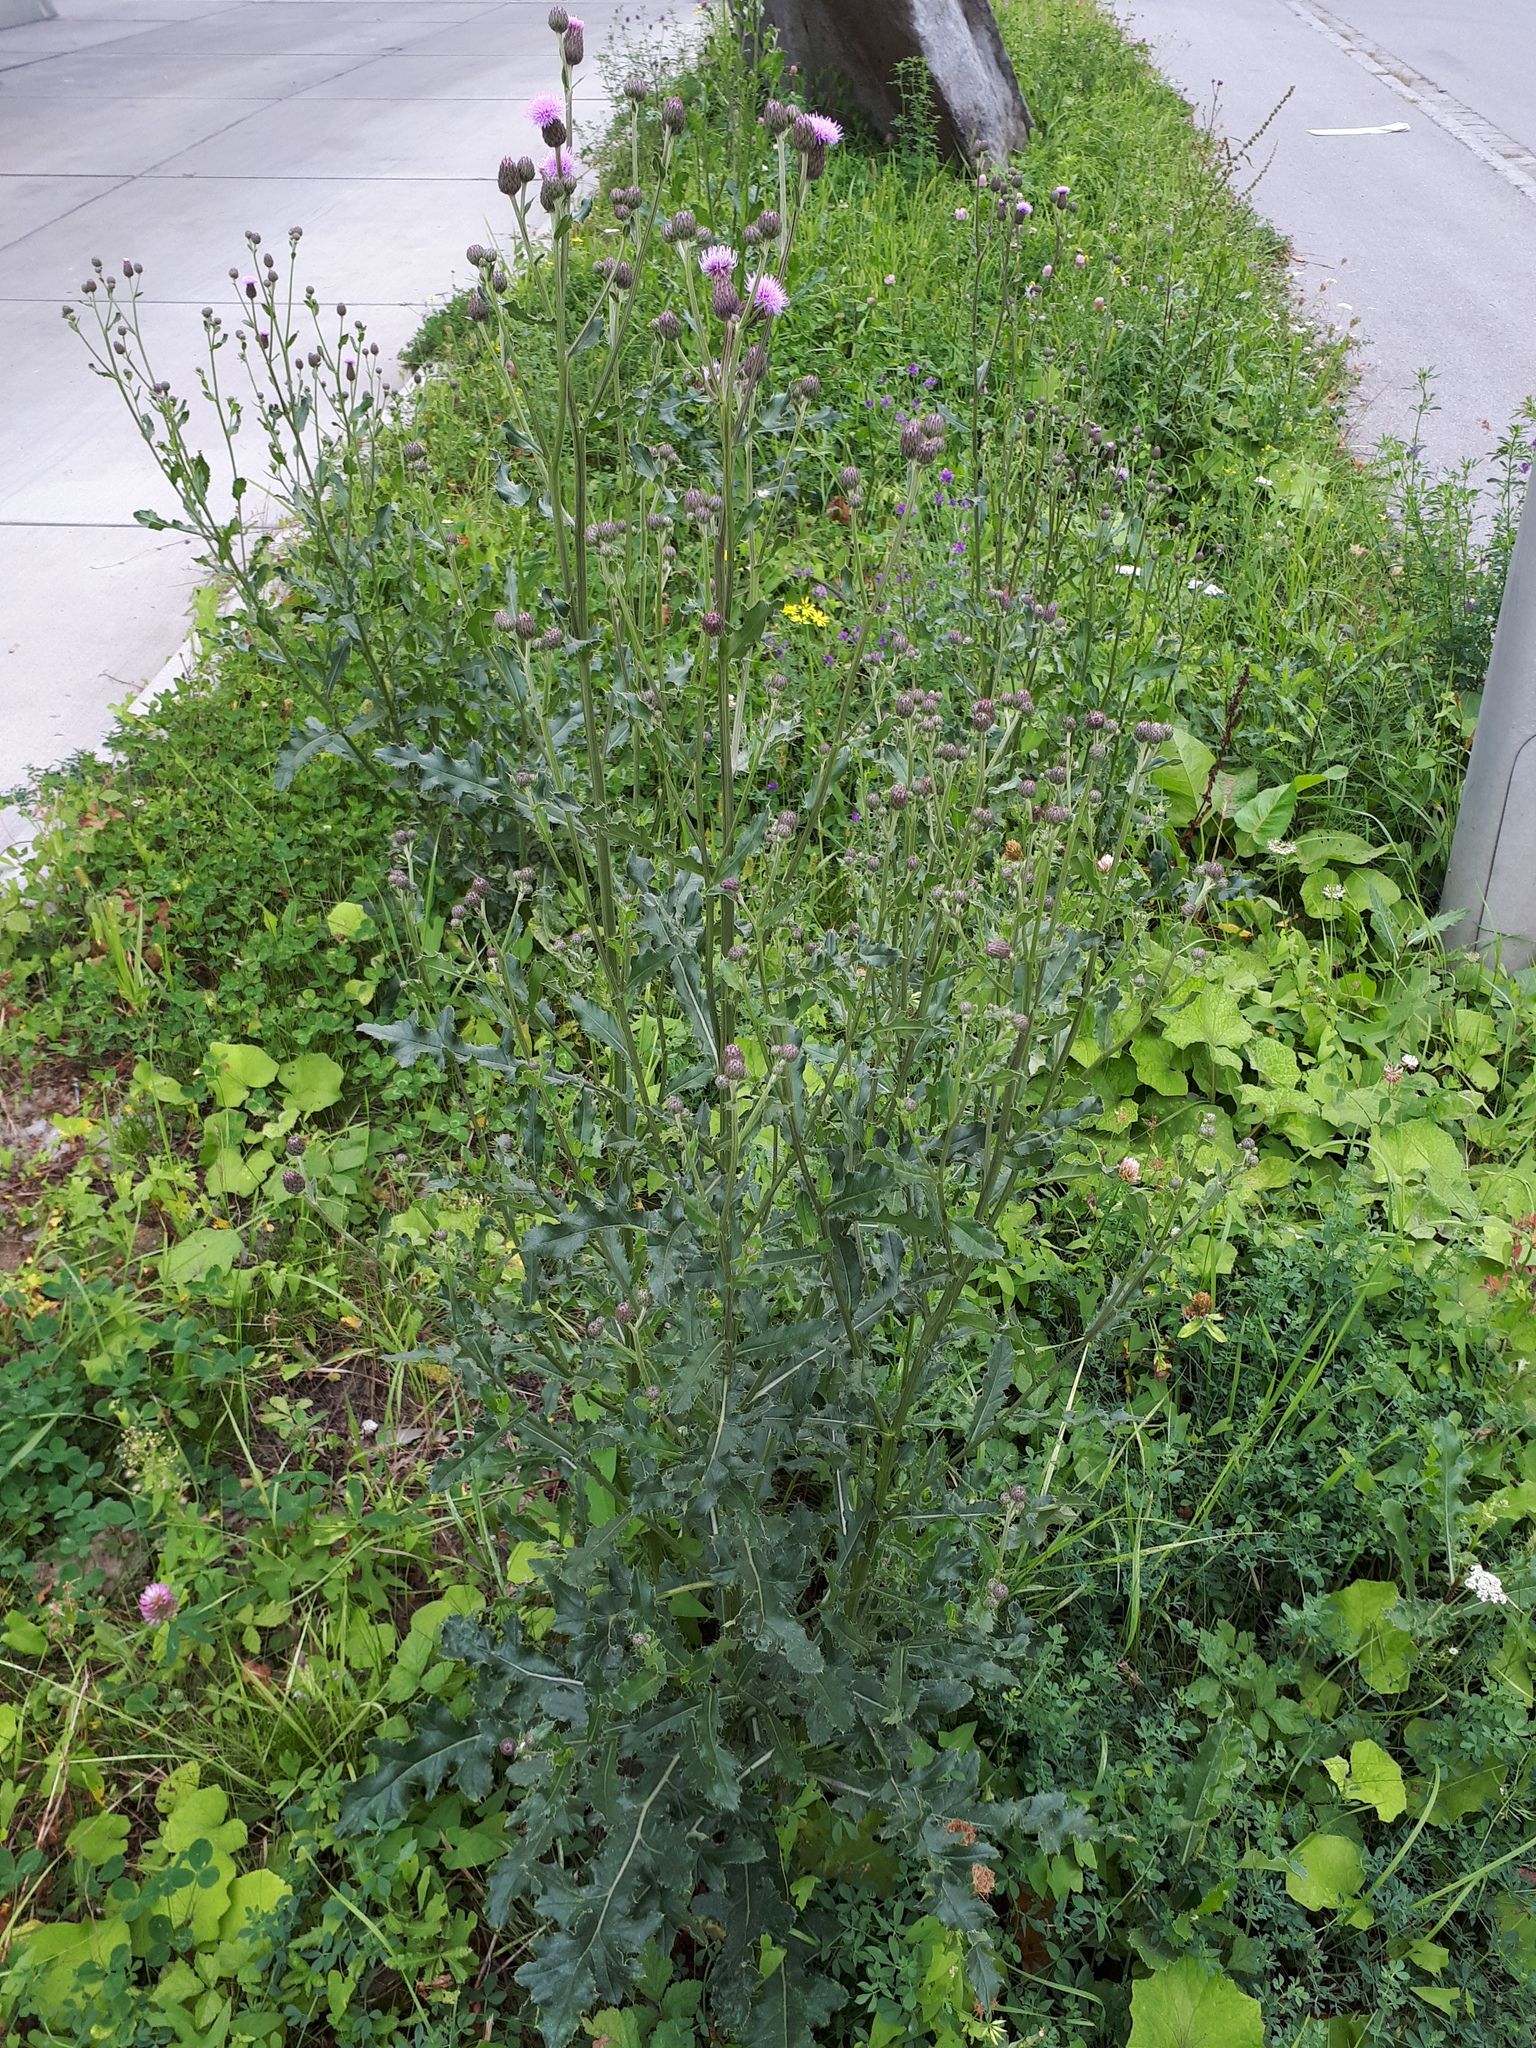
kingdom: Plantae
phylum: Tracheophyta
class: Magnoliopsida
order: Asterales
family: Asteraceae
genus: Cirsium
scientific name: Cirsium arvense
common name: Creeping thistle
